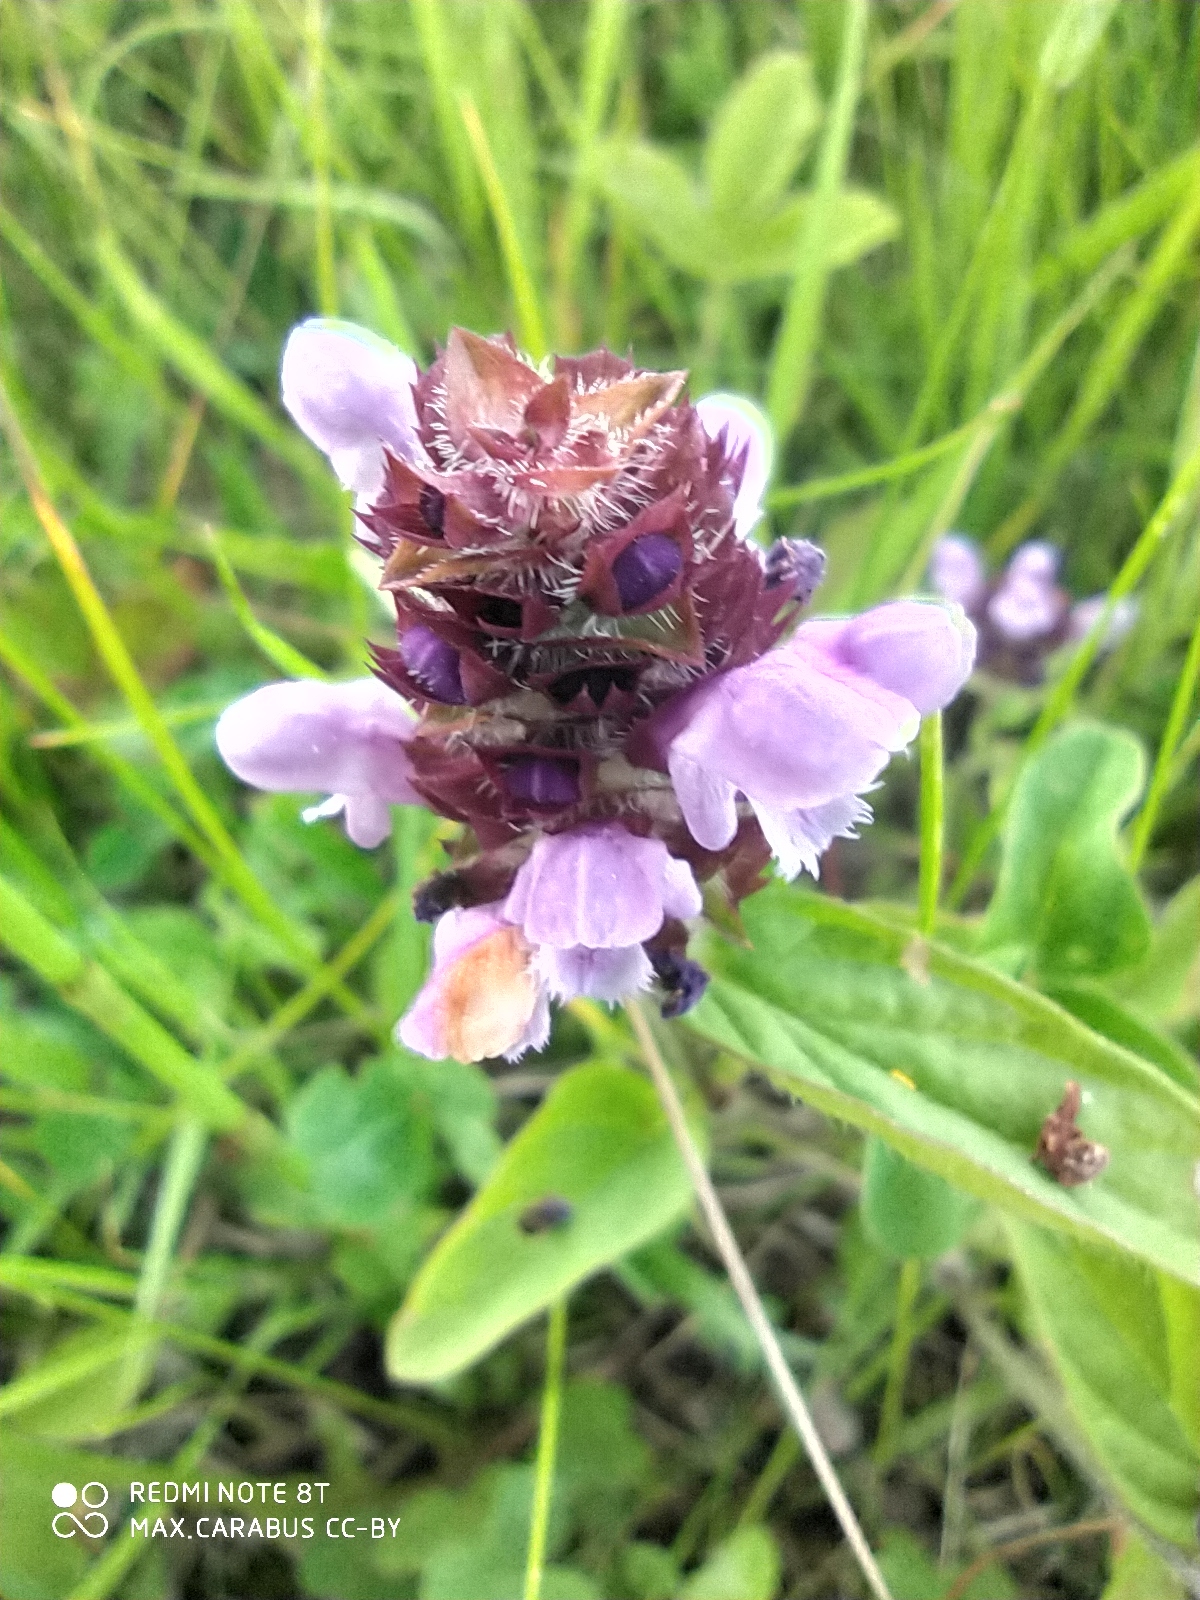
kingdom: Plantae
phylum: Tracheophyta
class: Magnoliopsida
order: Lamiales
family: Lamiaceae
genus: Prunella
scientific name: Prunella vulgaris
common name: Heal-all
